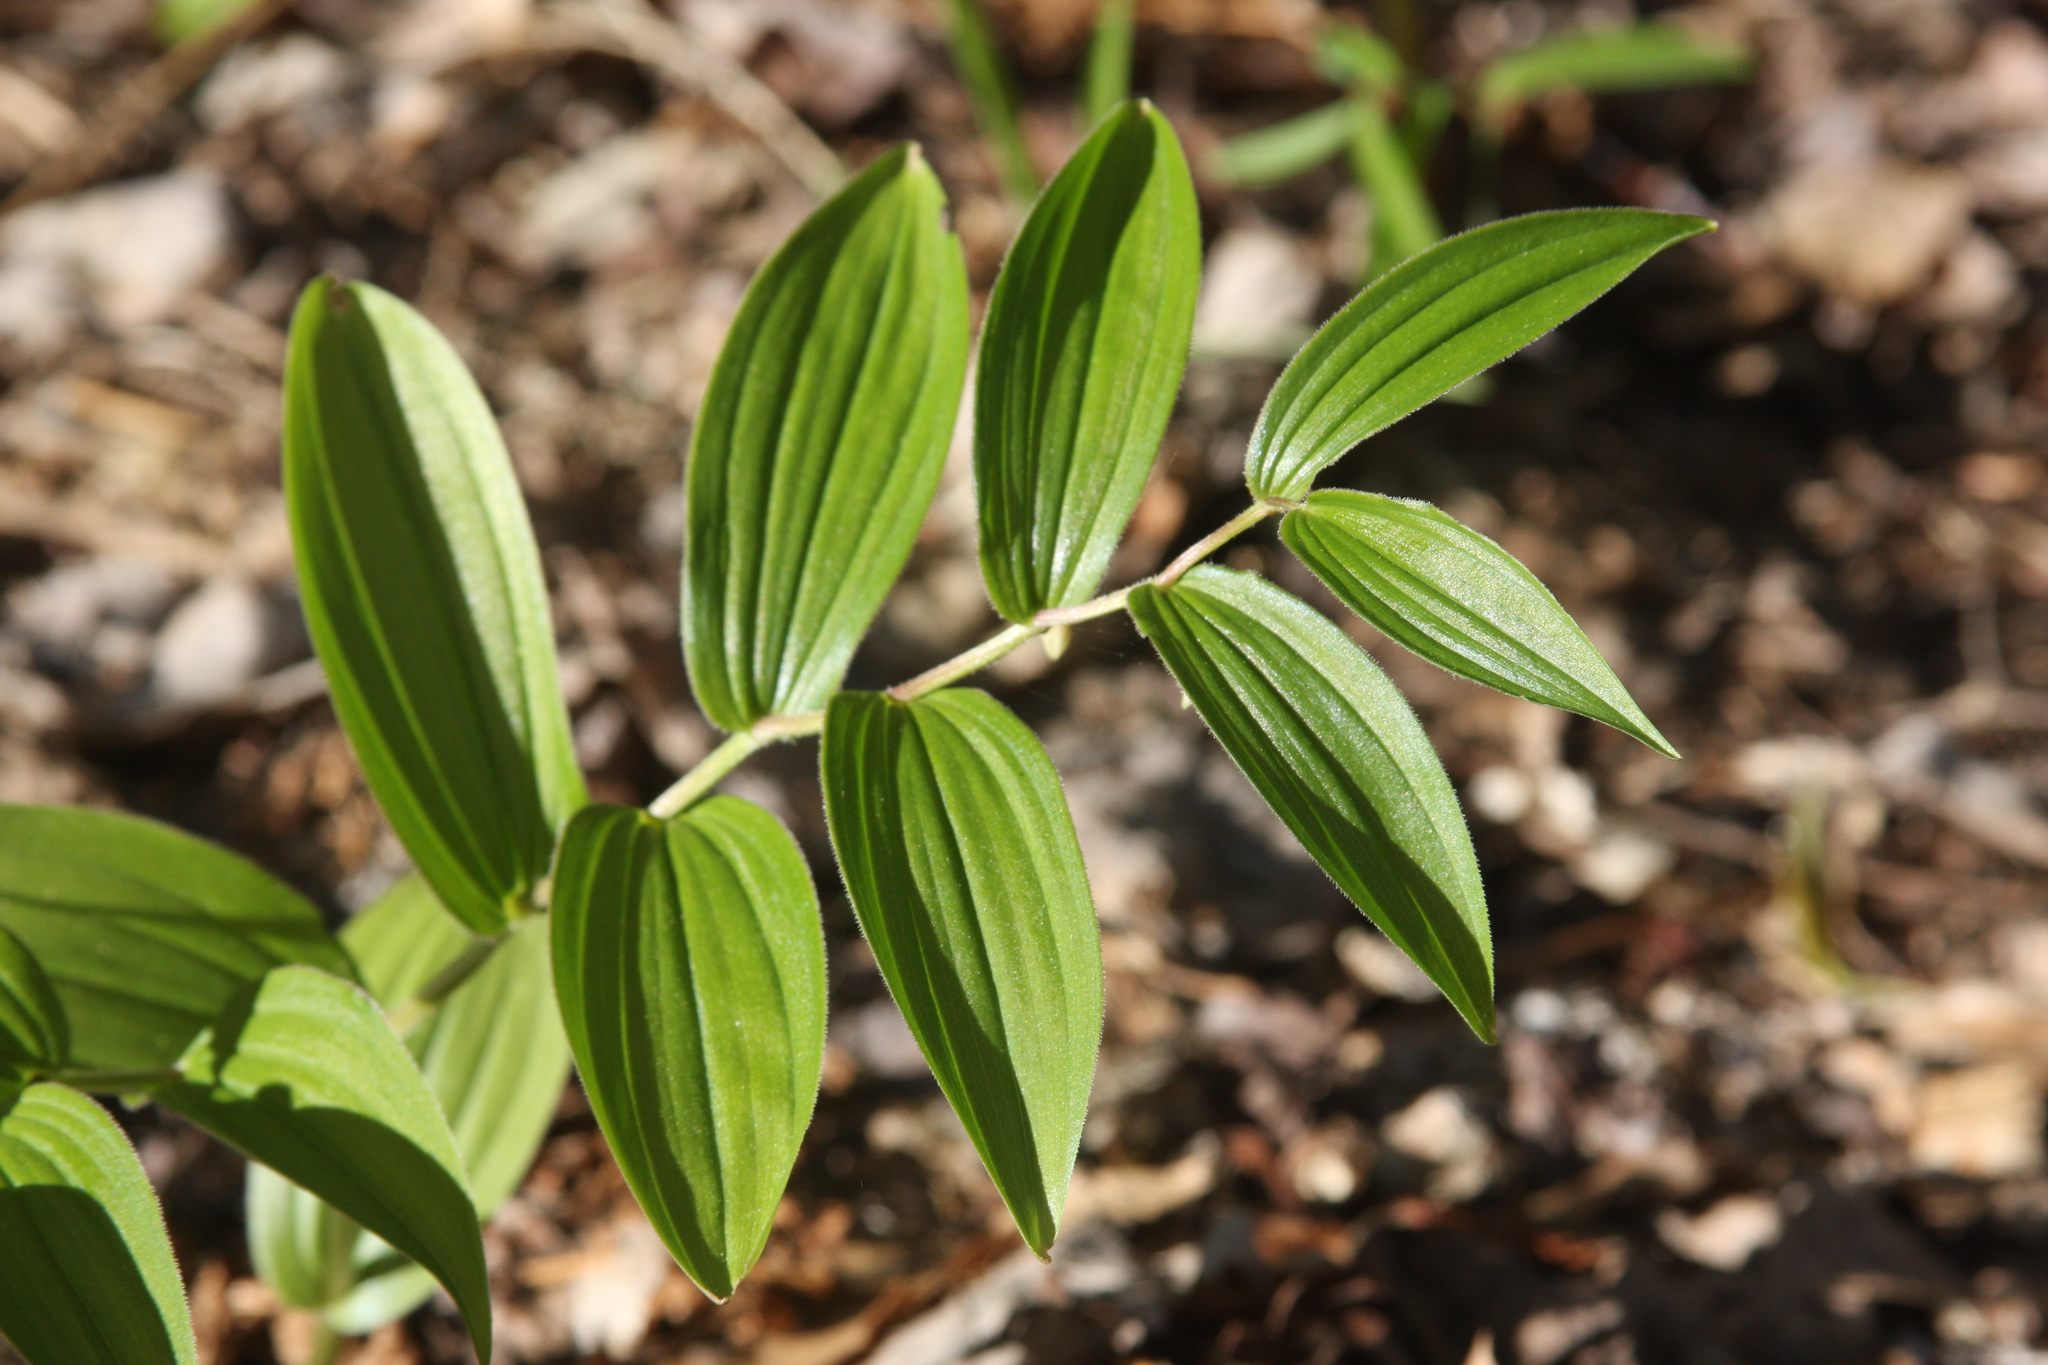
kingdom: Plantae
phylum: Tracheophyta
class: Liliopsida
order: Liliales
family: Liliaceae
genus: Streptopus
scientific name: Streptopus lanceolatus
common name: Rose mandarin
